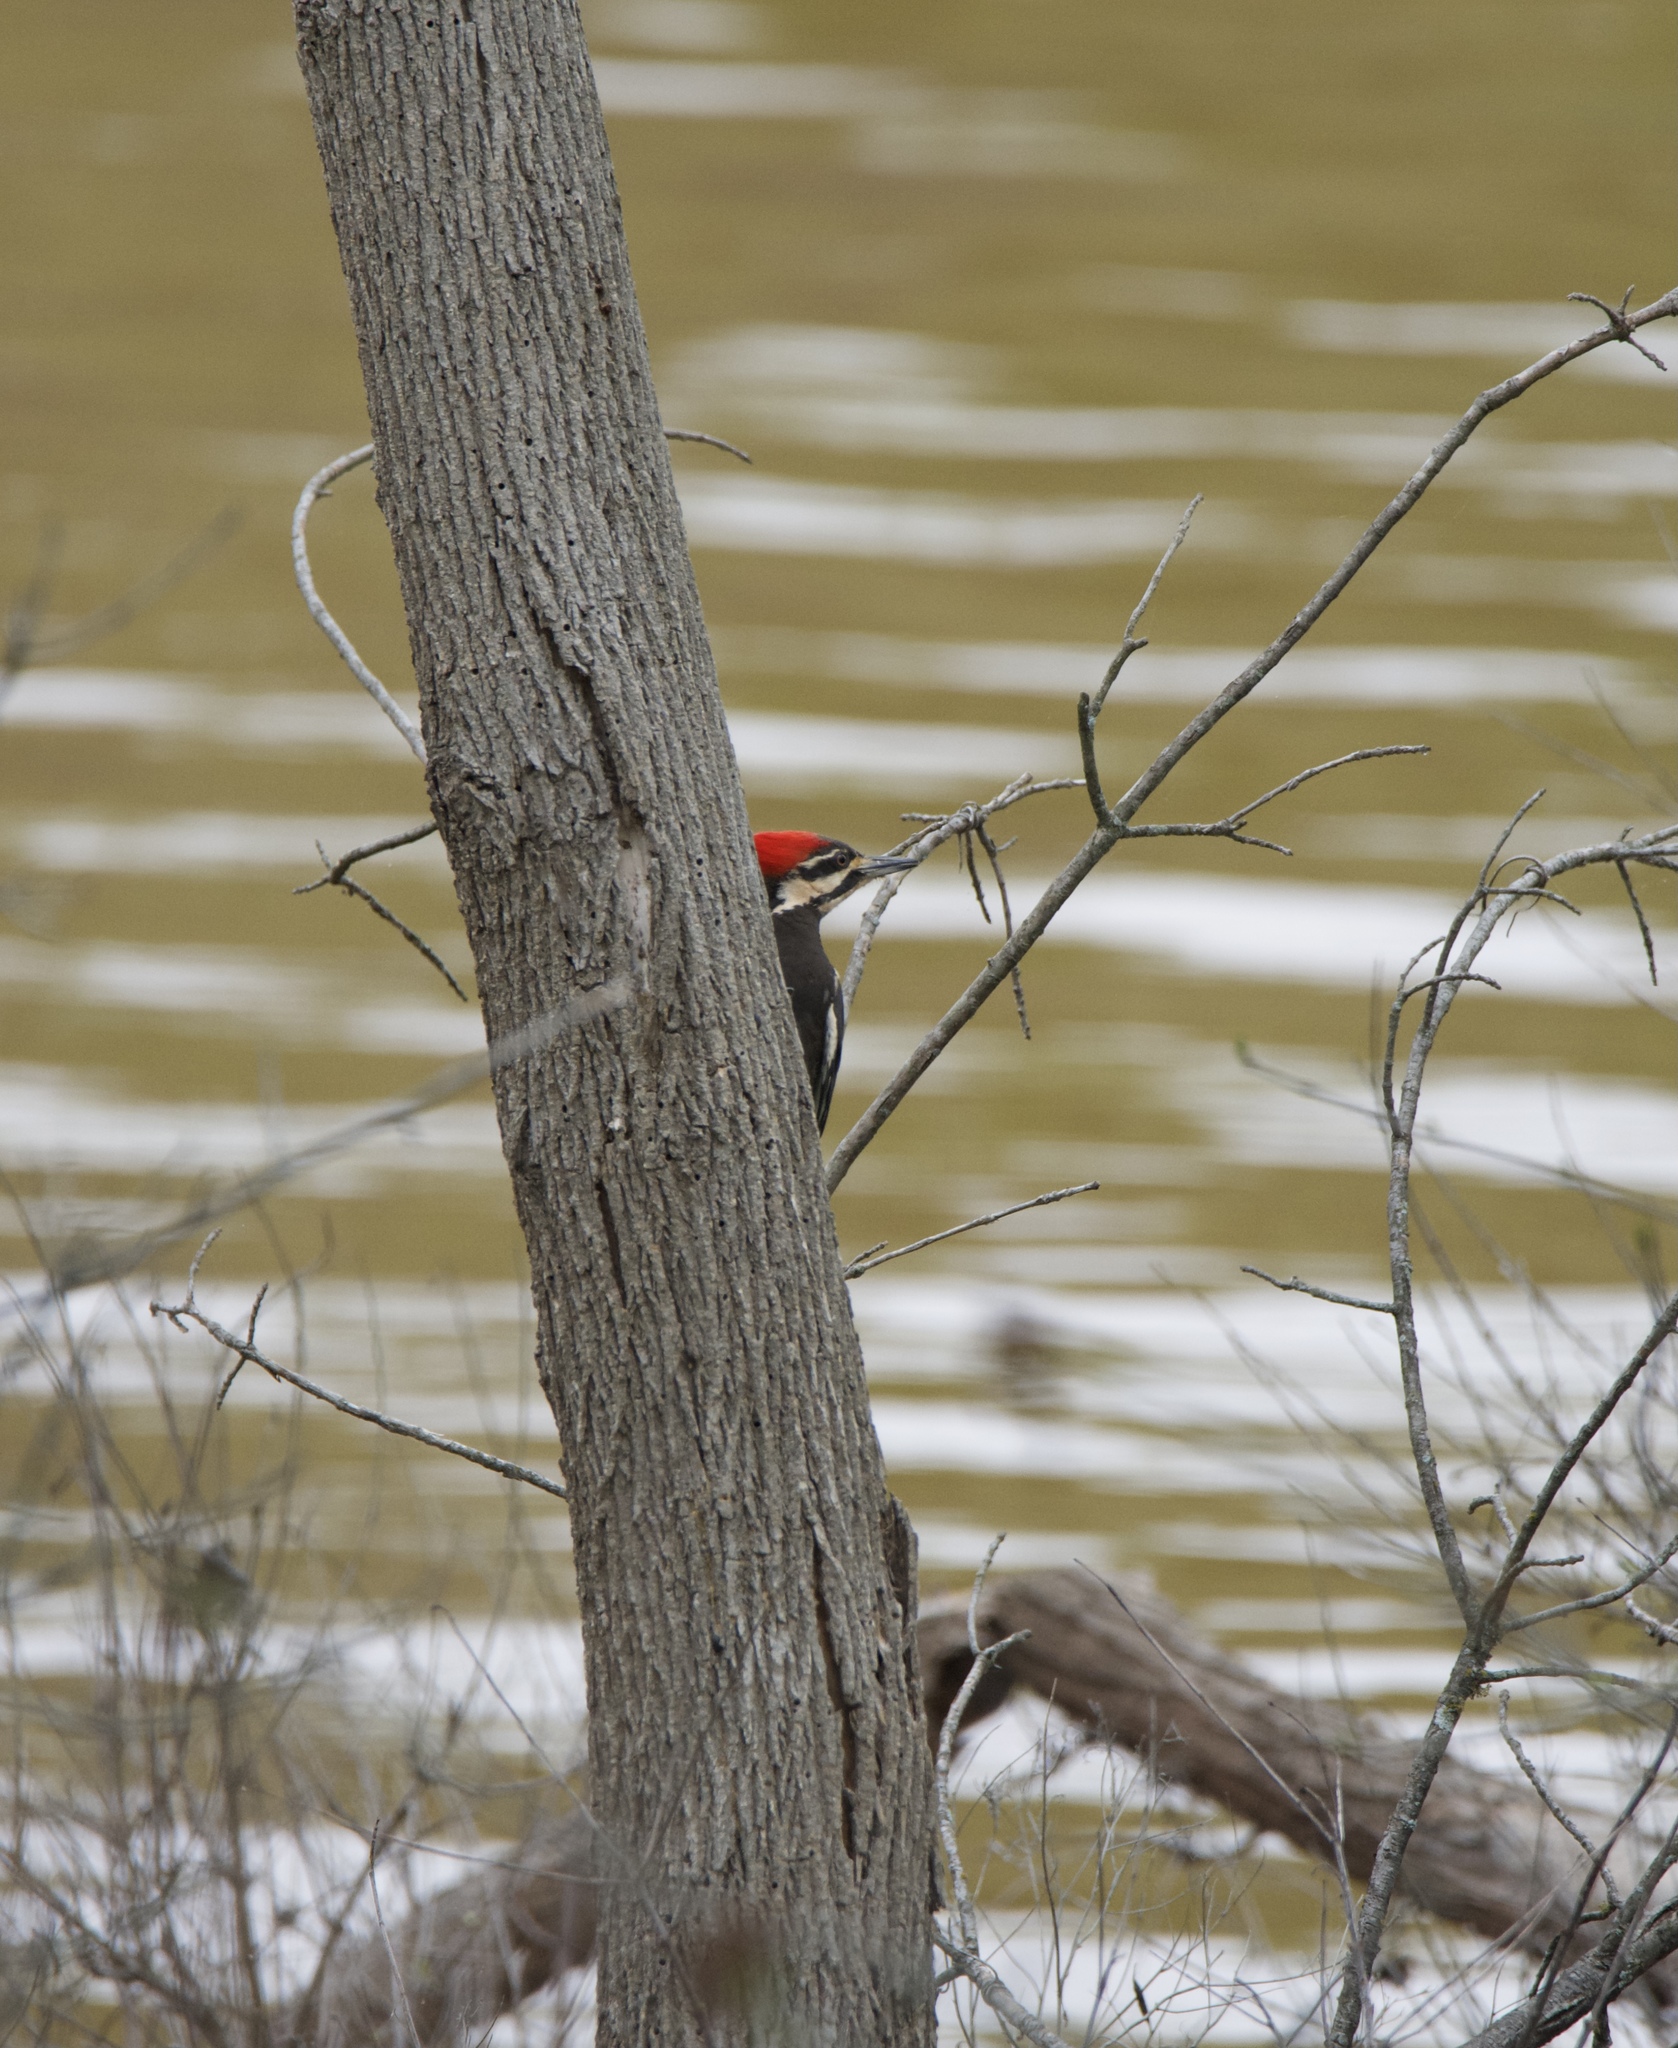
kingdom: Animalia
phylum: Chordata
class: Aves
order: Piciformes
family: Picidae
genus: Dryocopus
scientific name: Dryocopus pileatus
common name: Pileated woodpecker
